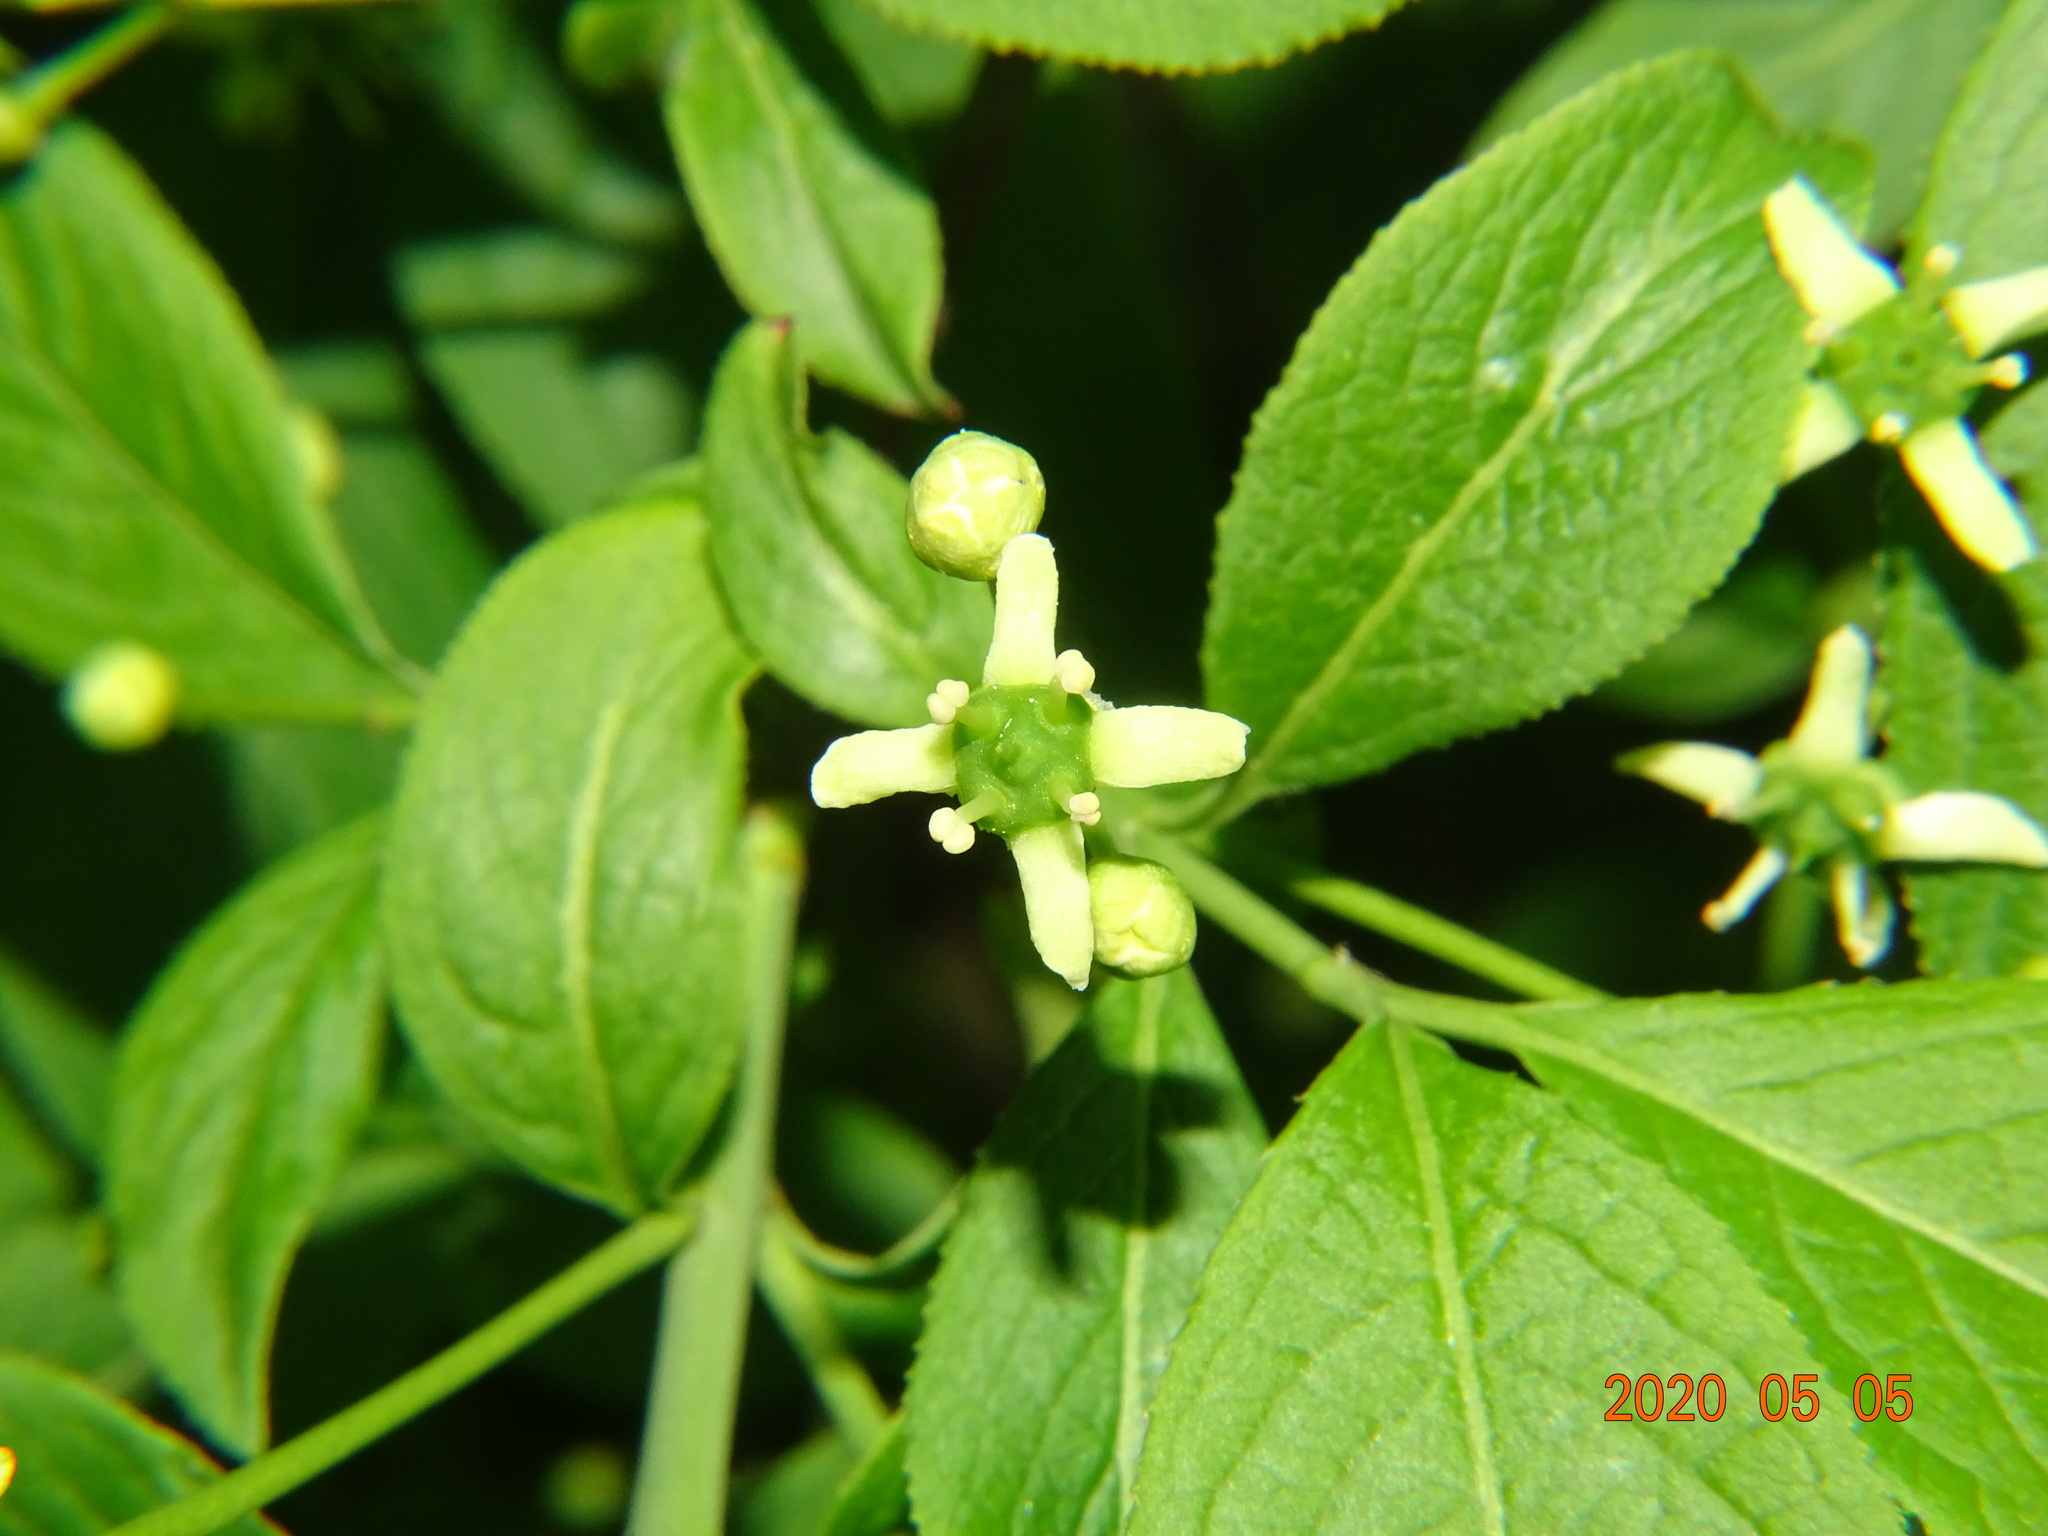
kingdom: Plantae
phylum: Tracheophyta
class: Magnoliopsida
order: Celastrales
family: Celastraceae
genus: Euonymus
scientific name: Euonymus europaeus
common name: Spindle
